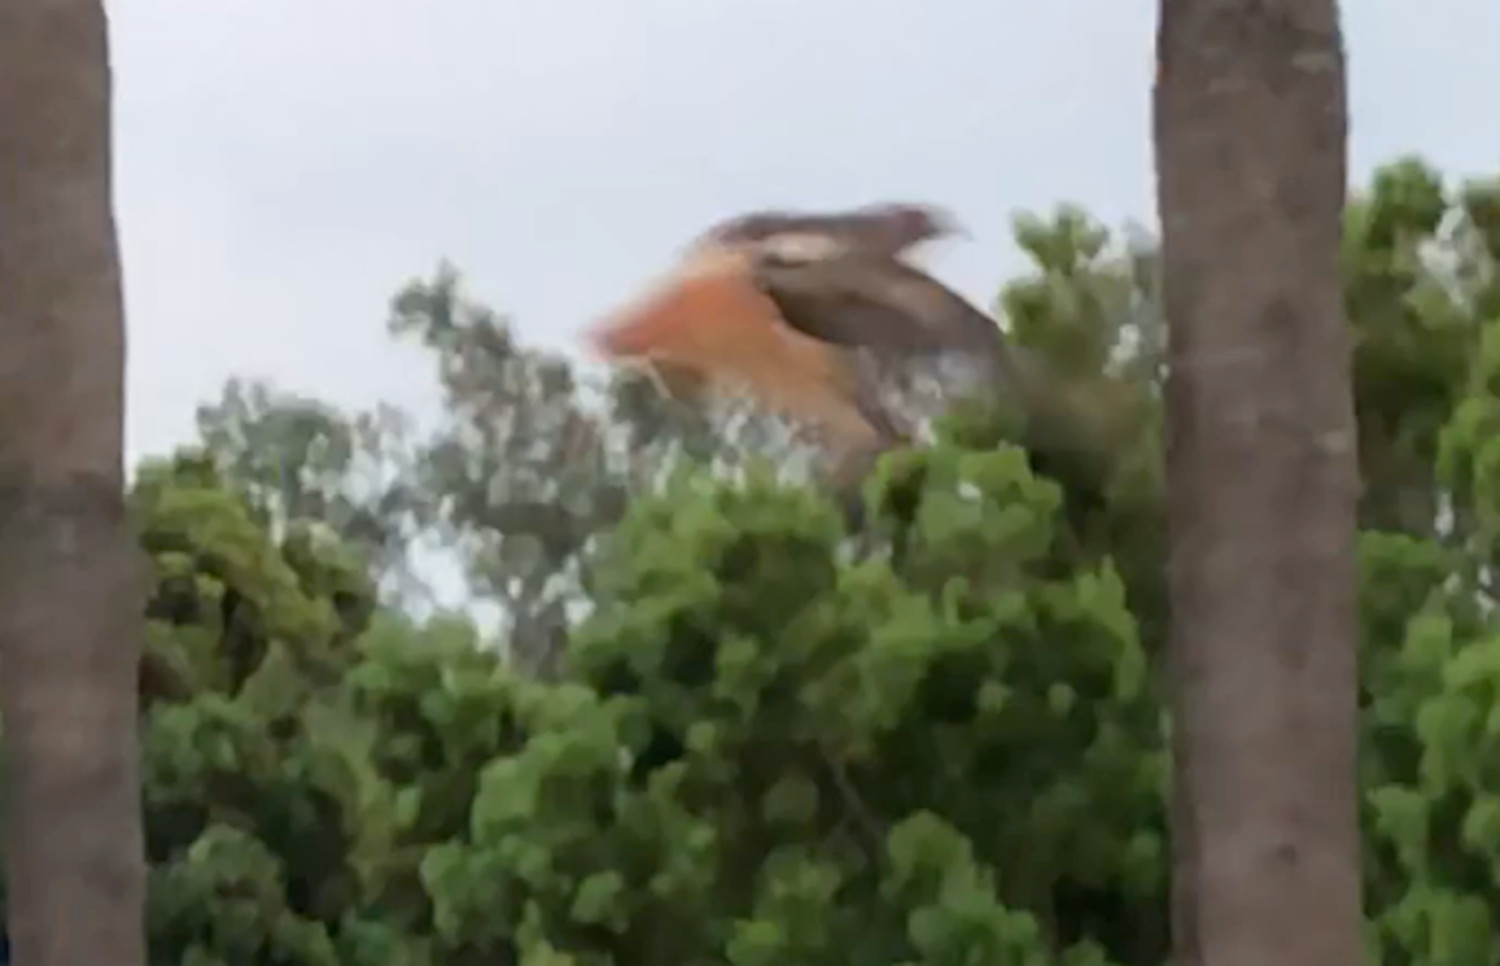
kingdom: Animalia
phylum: Chordata
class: Aves
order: Accipitriformes
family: Accipitridae
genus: Buteo
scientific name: Buteo jamaicensis
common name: Red-tailed hawk
